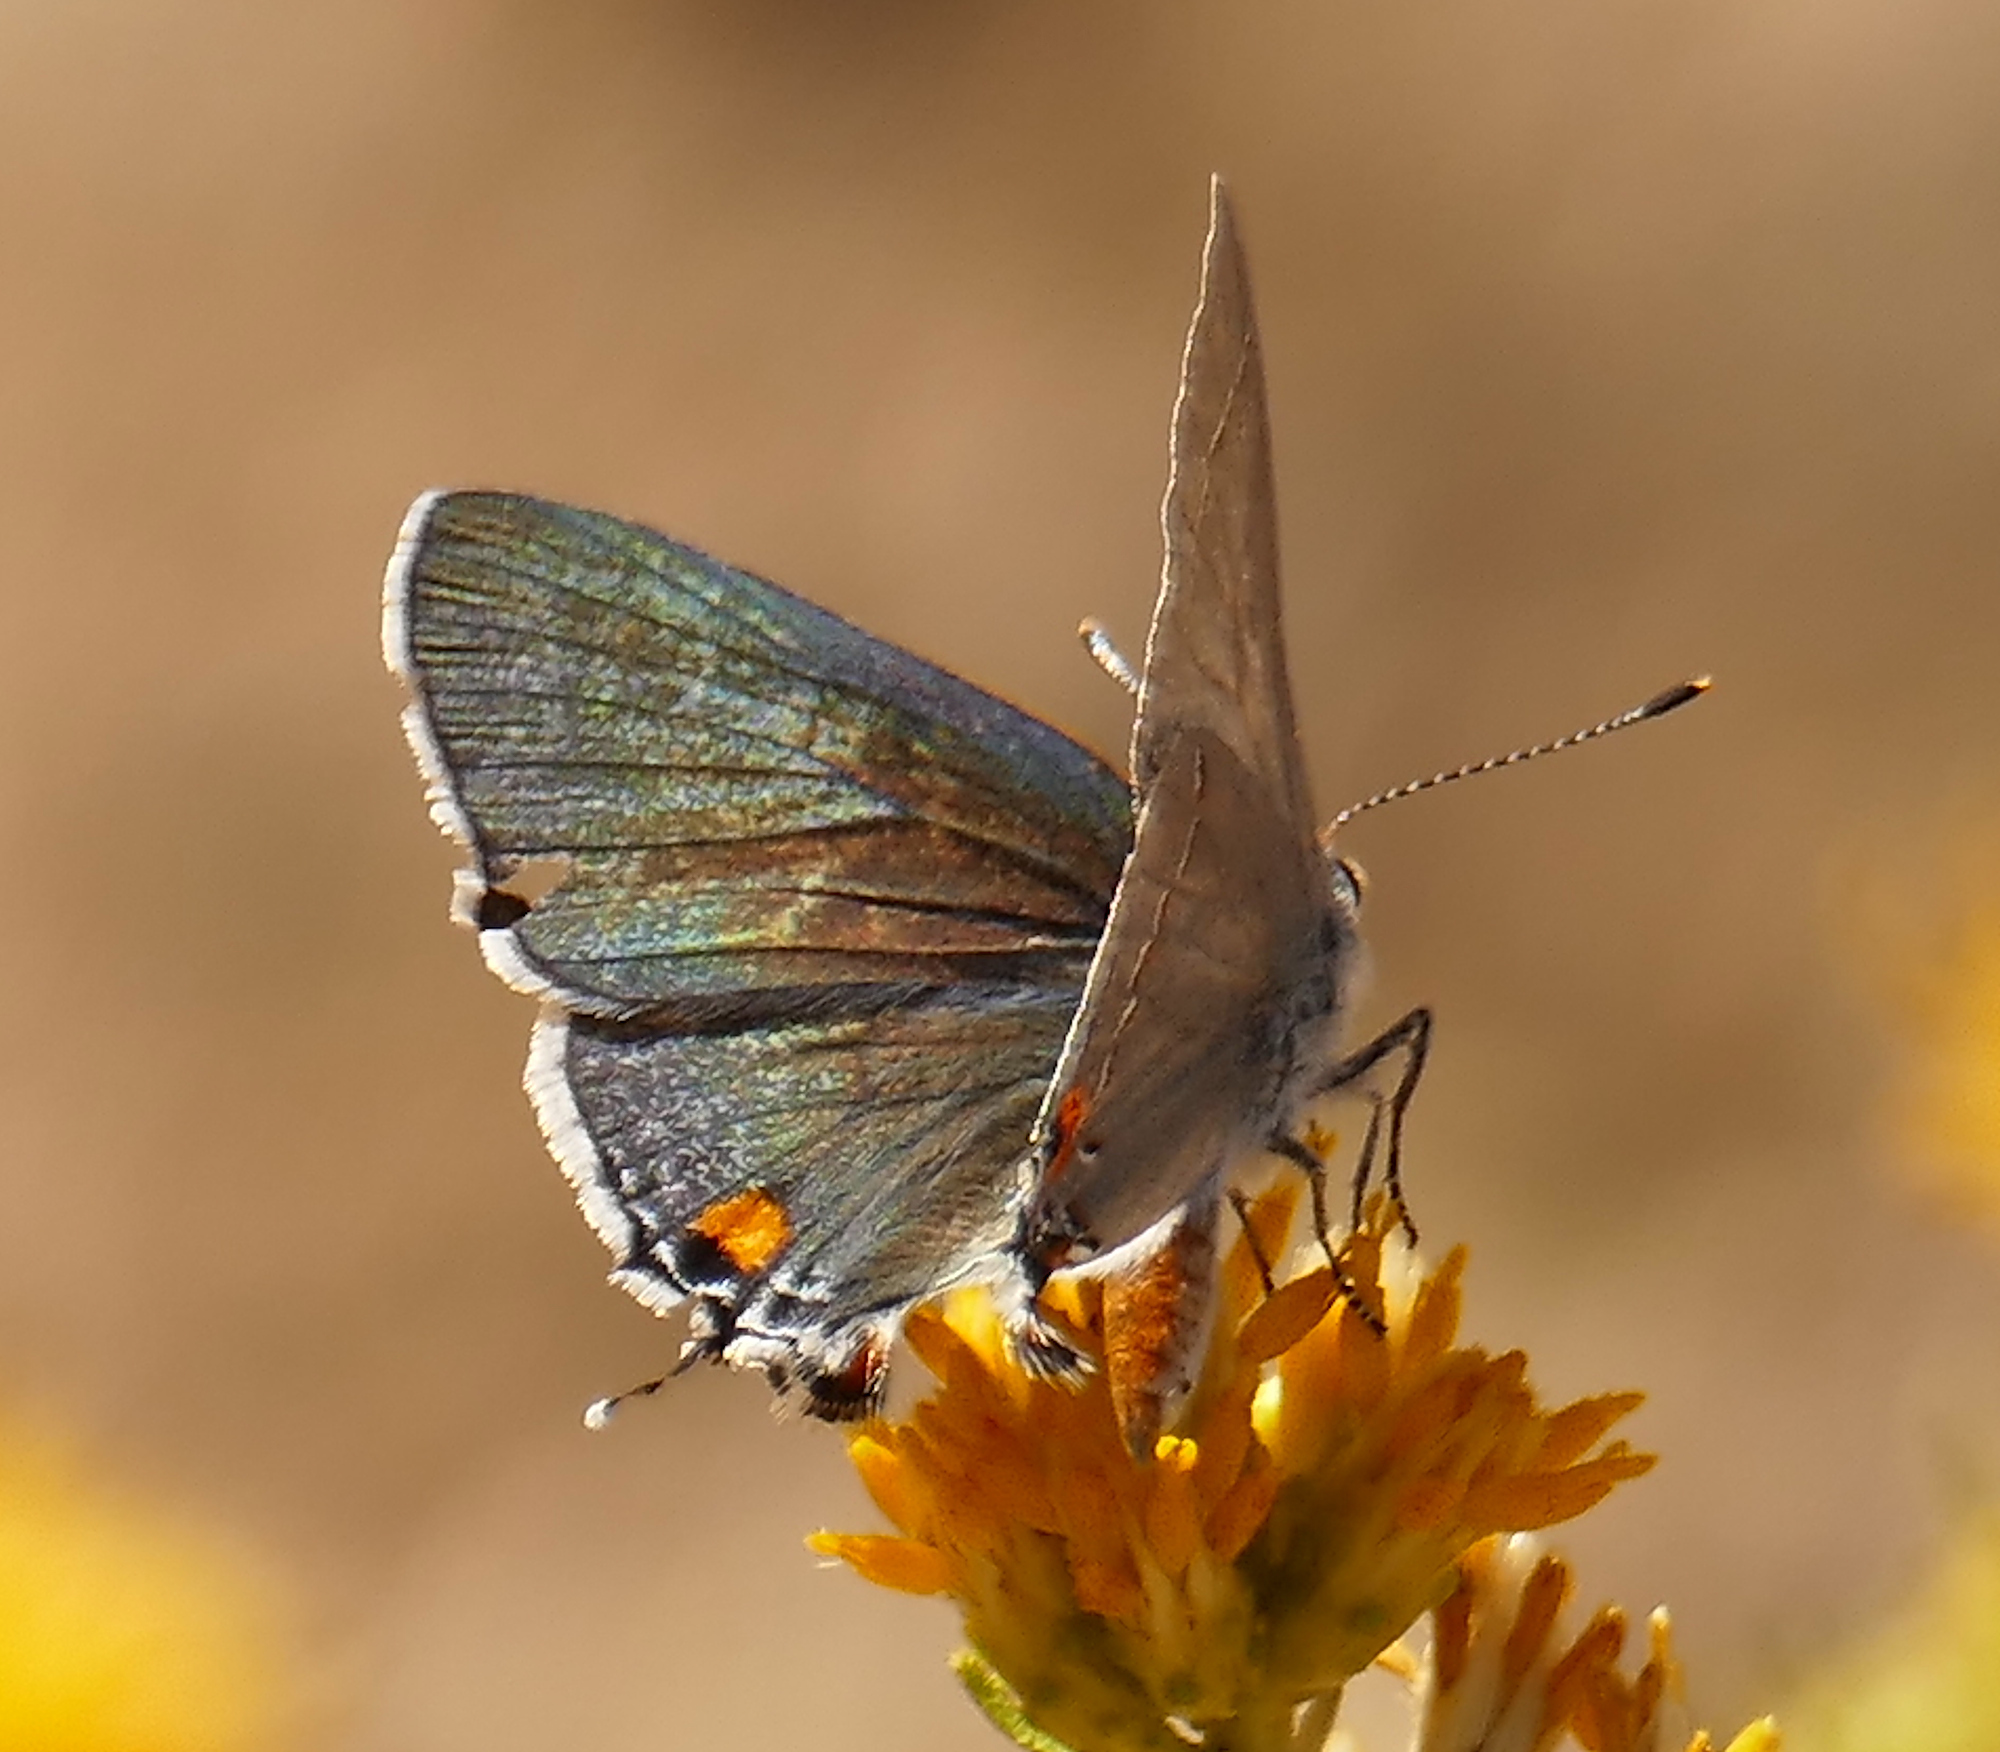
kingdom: Animalia
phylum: Arthropoda
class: Insecta
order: Lepidoptera
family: Lycaenidae
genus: Strymon
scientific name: Strymon melinus
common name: Gray hairstreak
